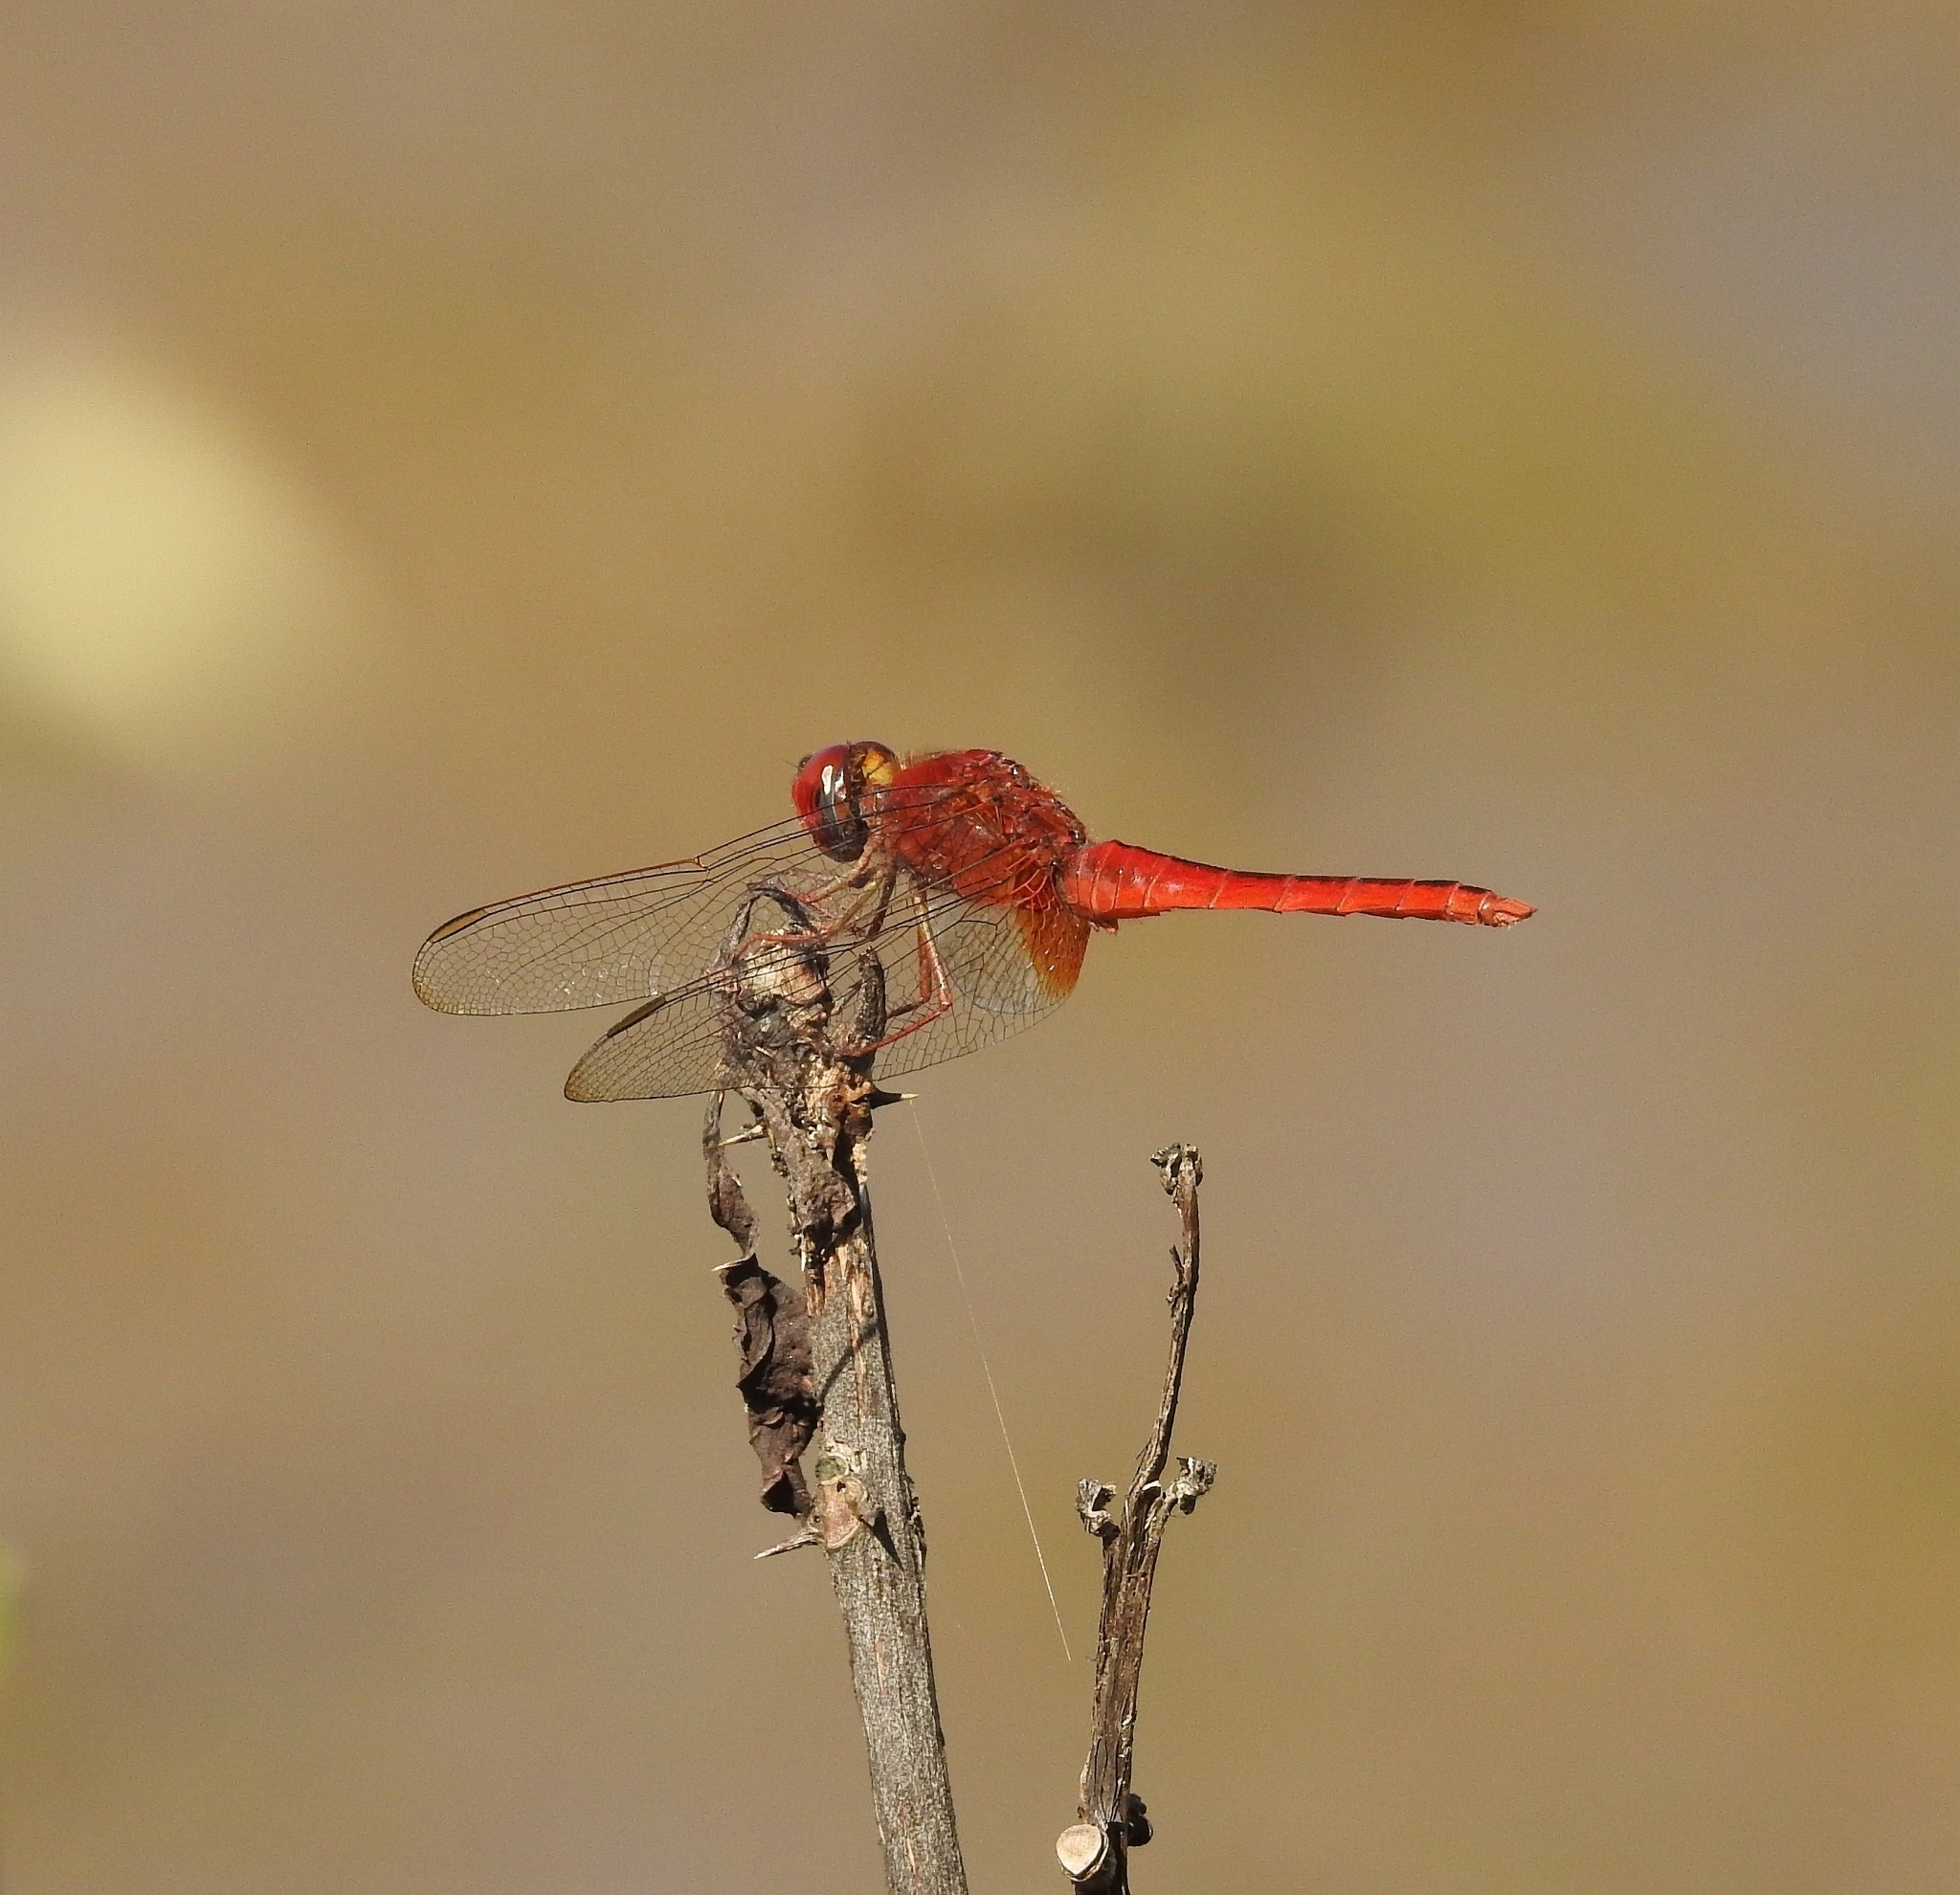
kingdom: Animalia
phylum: Arthropoda
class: Insecta
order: Odonata
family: Libellulidae
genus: Crocothemis
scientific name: Crocothemis servilia
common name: Scarlet skimmer
